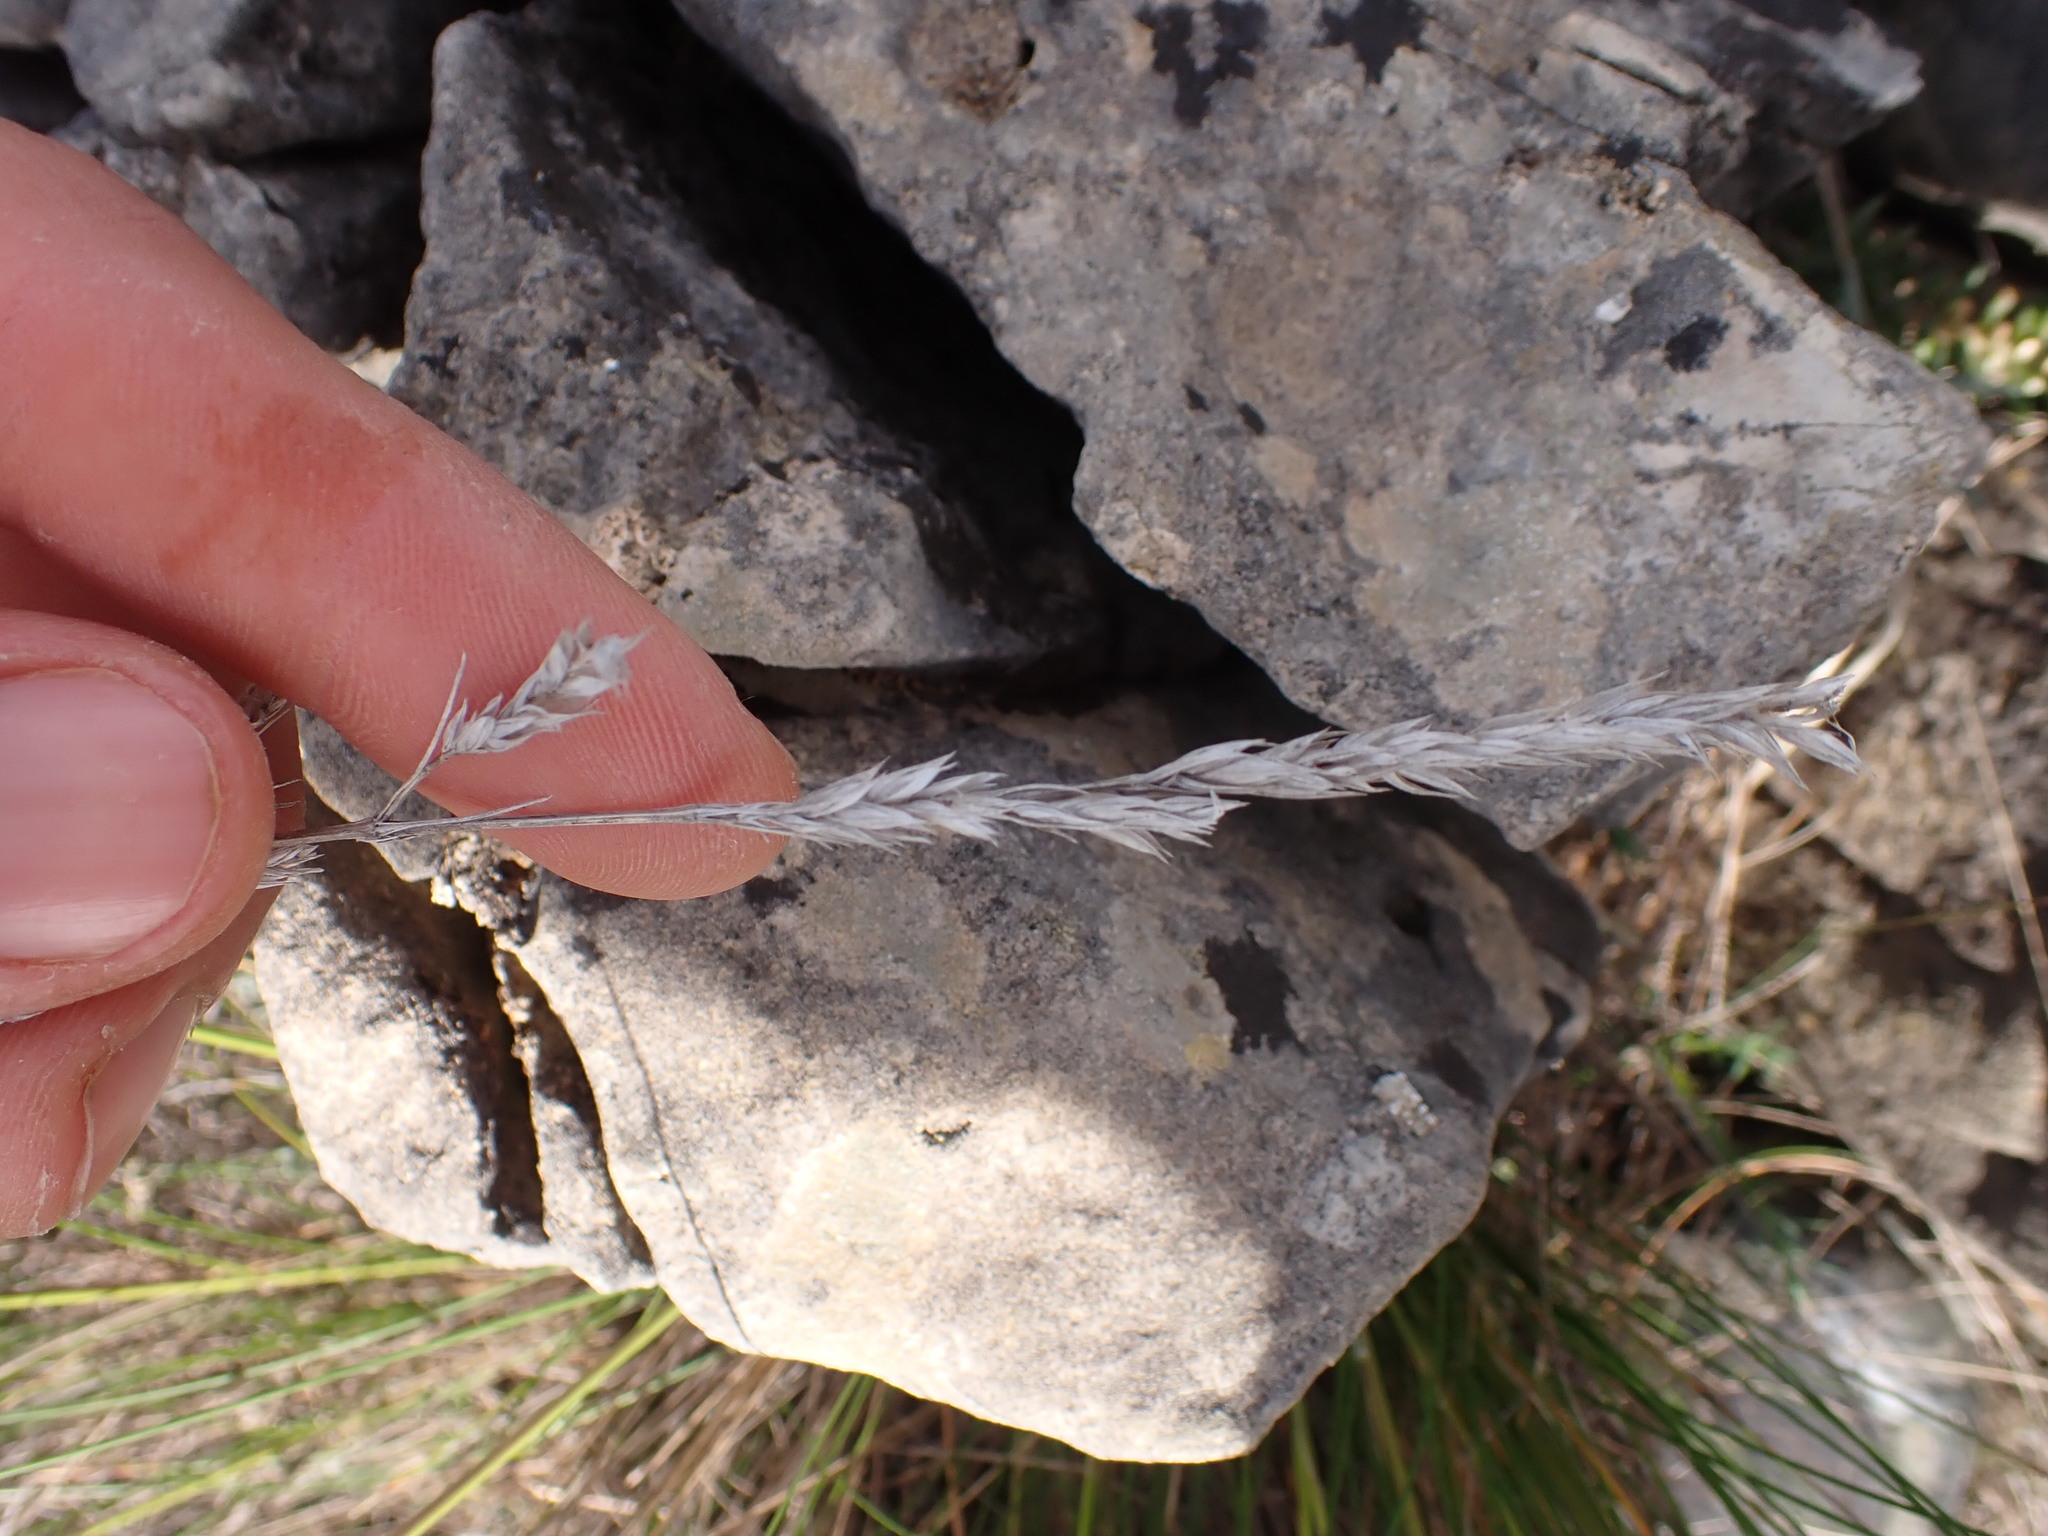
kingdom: Plantae
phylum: Tracheophyta
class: Magnoliopsida
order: Gentianales
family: Rubiaceae
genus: Crucianella
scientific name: Crucianella angustifolia
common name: Narrowleaf crucianella
